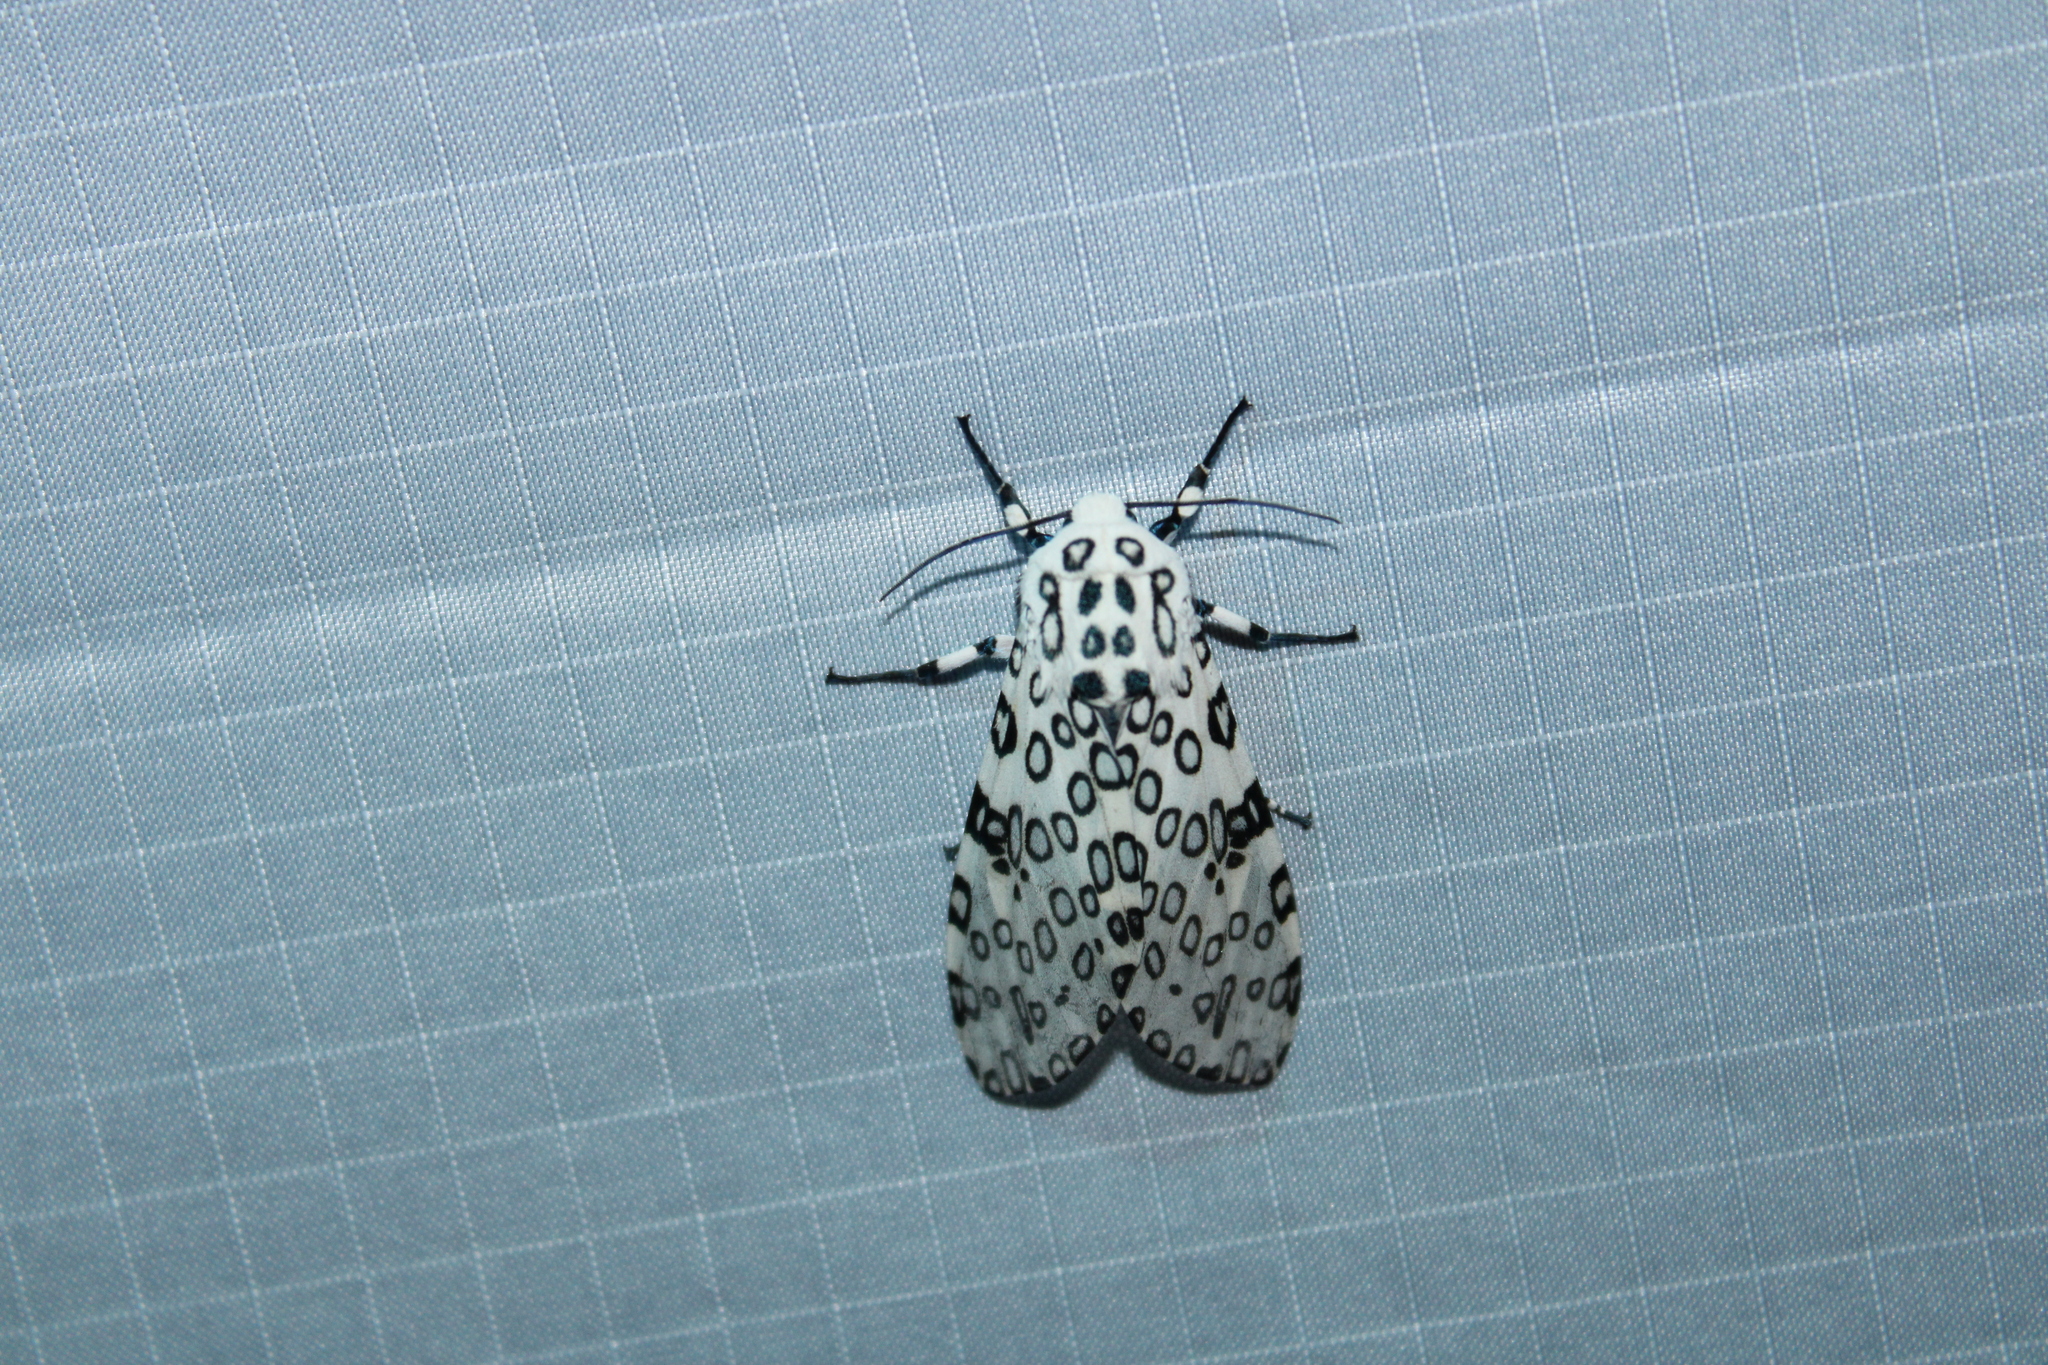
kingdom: Animalia
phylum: Arthropoda
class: Insecta
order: Lepidoptera
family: Erebidae
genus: Hypercompe
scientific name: Hypercompe scribonia
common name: Giant leopard moth
